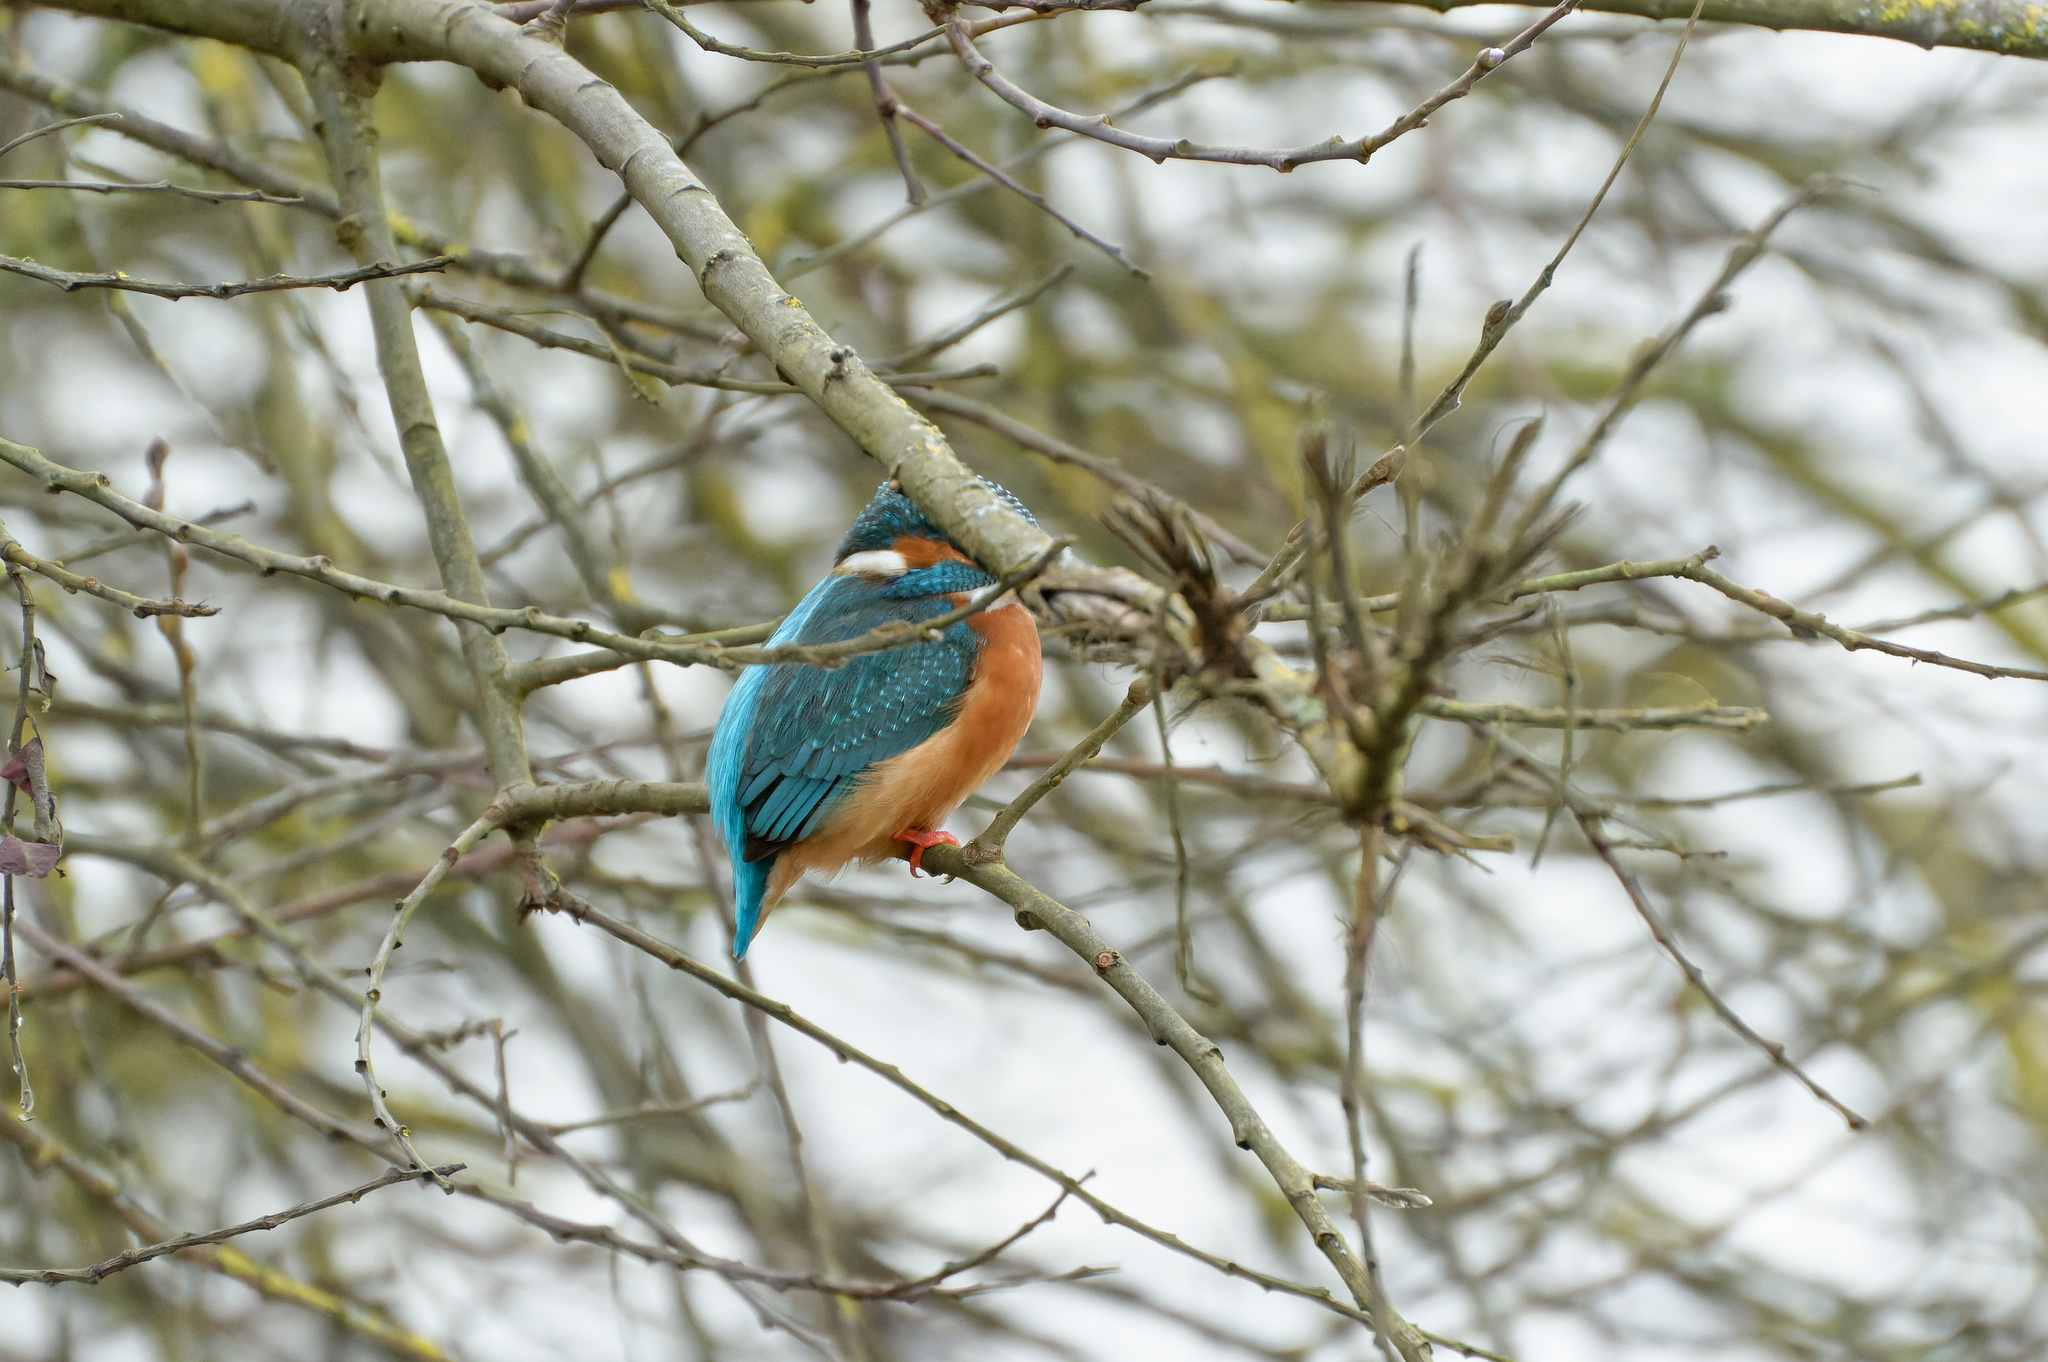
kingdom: Animalia
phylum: Chordata
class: Aves
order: Coraciiformes
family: Alcedinidae
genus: Alcedo
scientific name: Alcedo atthis
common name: Common kingfisher
